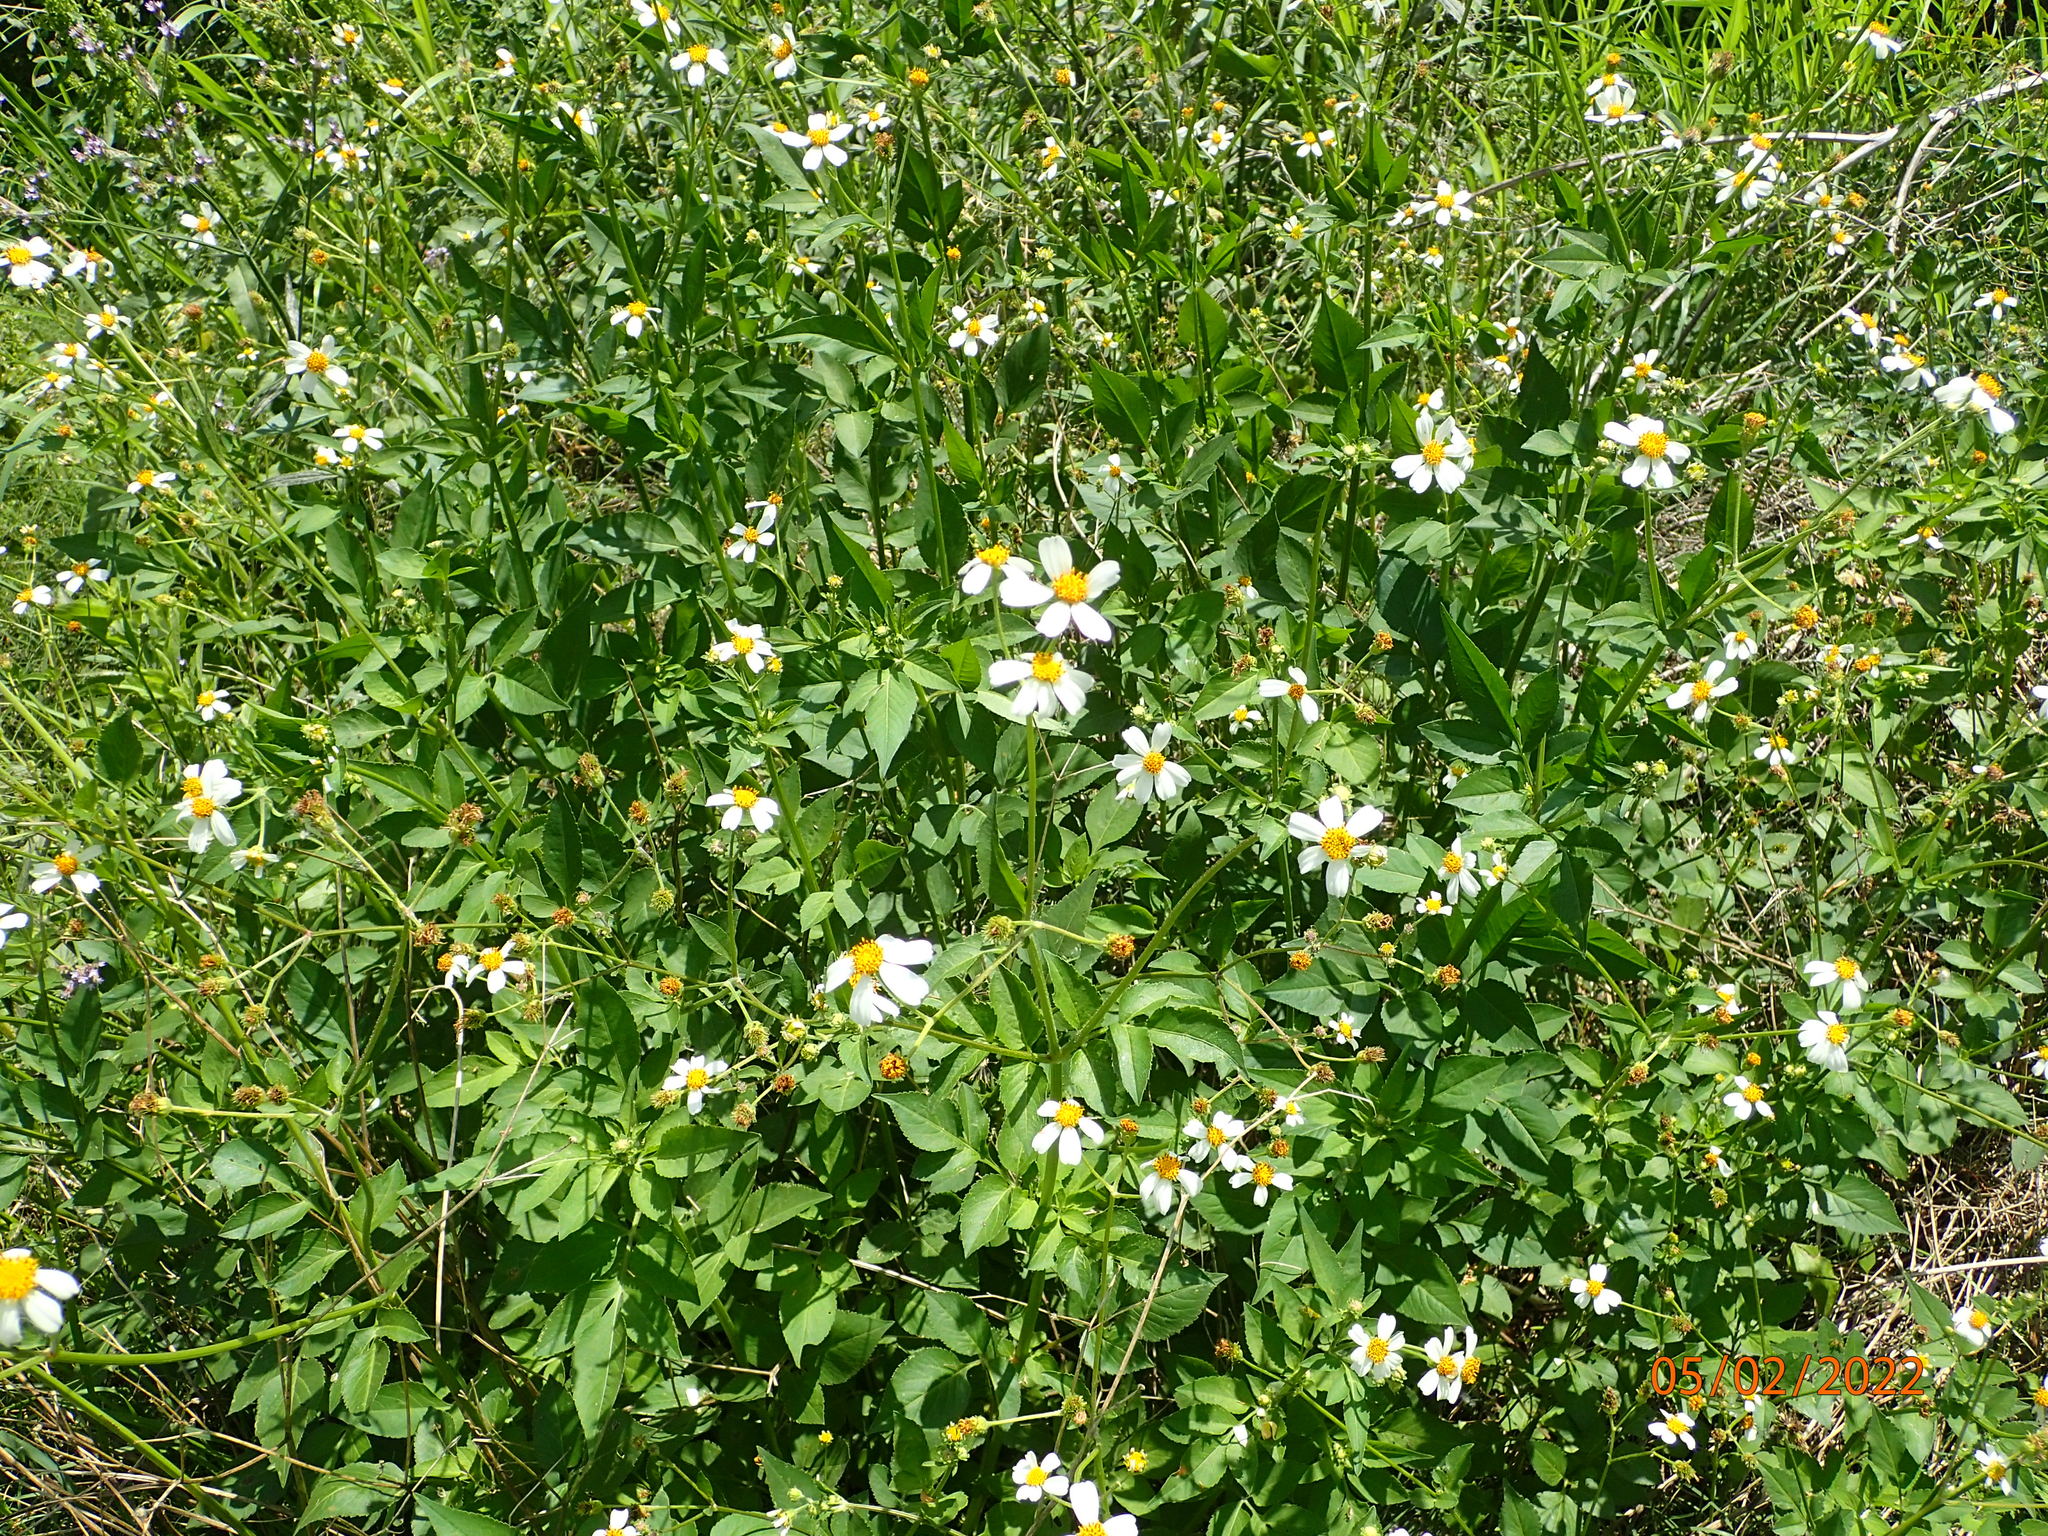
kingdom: Plantae
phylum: Tracheophyta
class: Magnoliopsida
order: Asterales
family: Asteraceae
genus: Bidens
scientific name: Bidens alba
